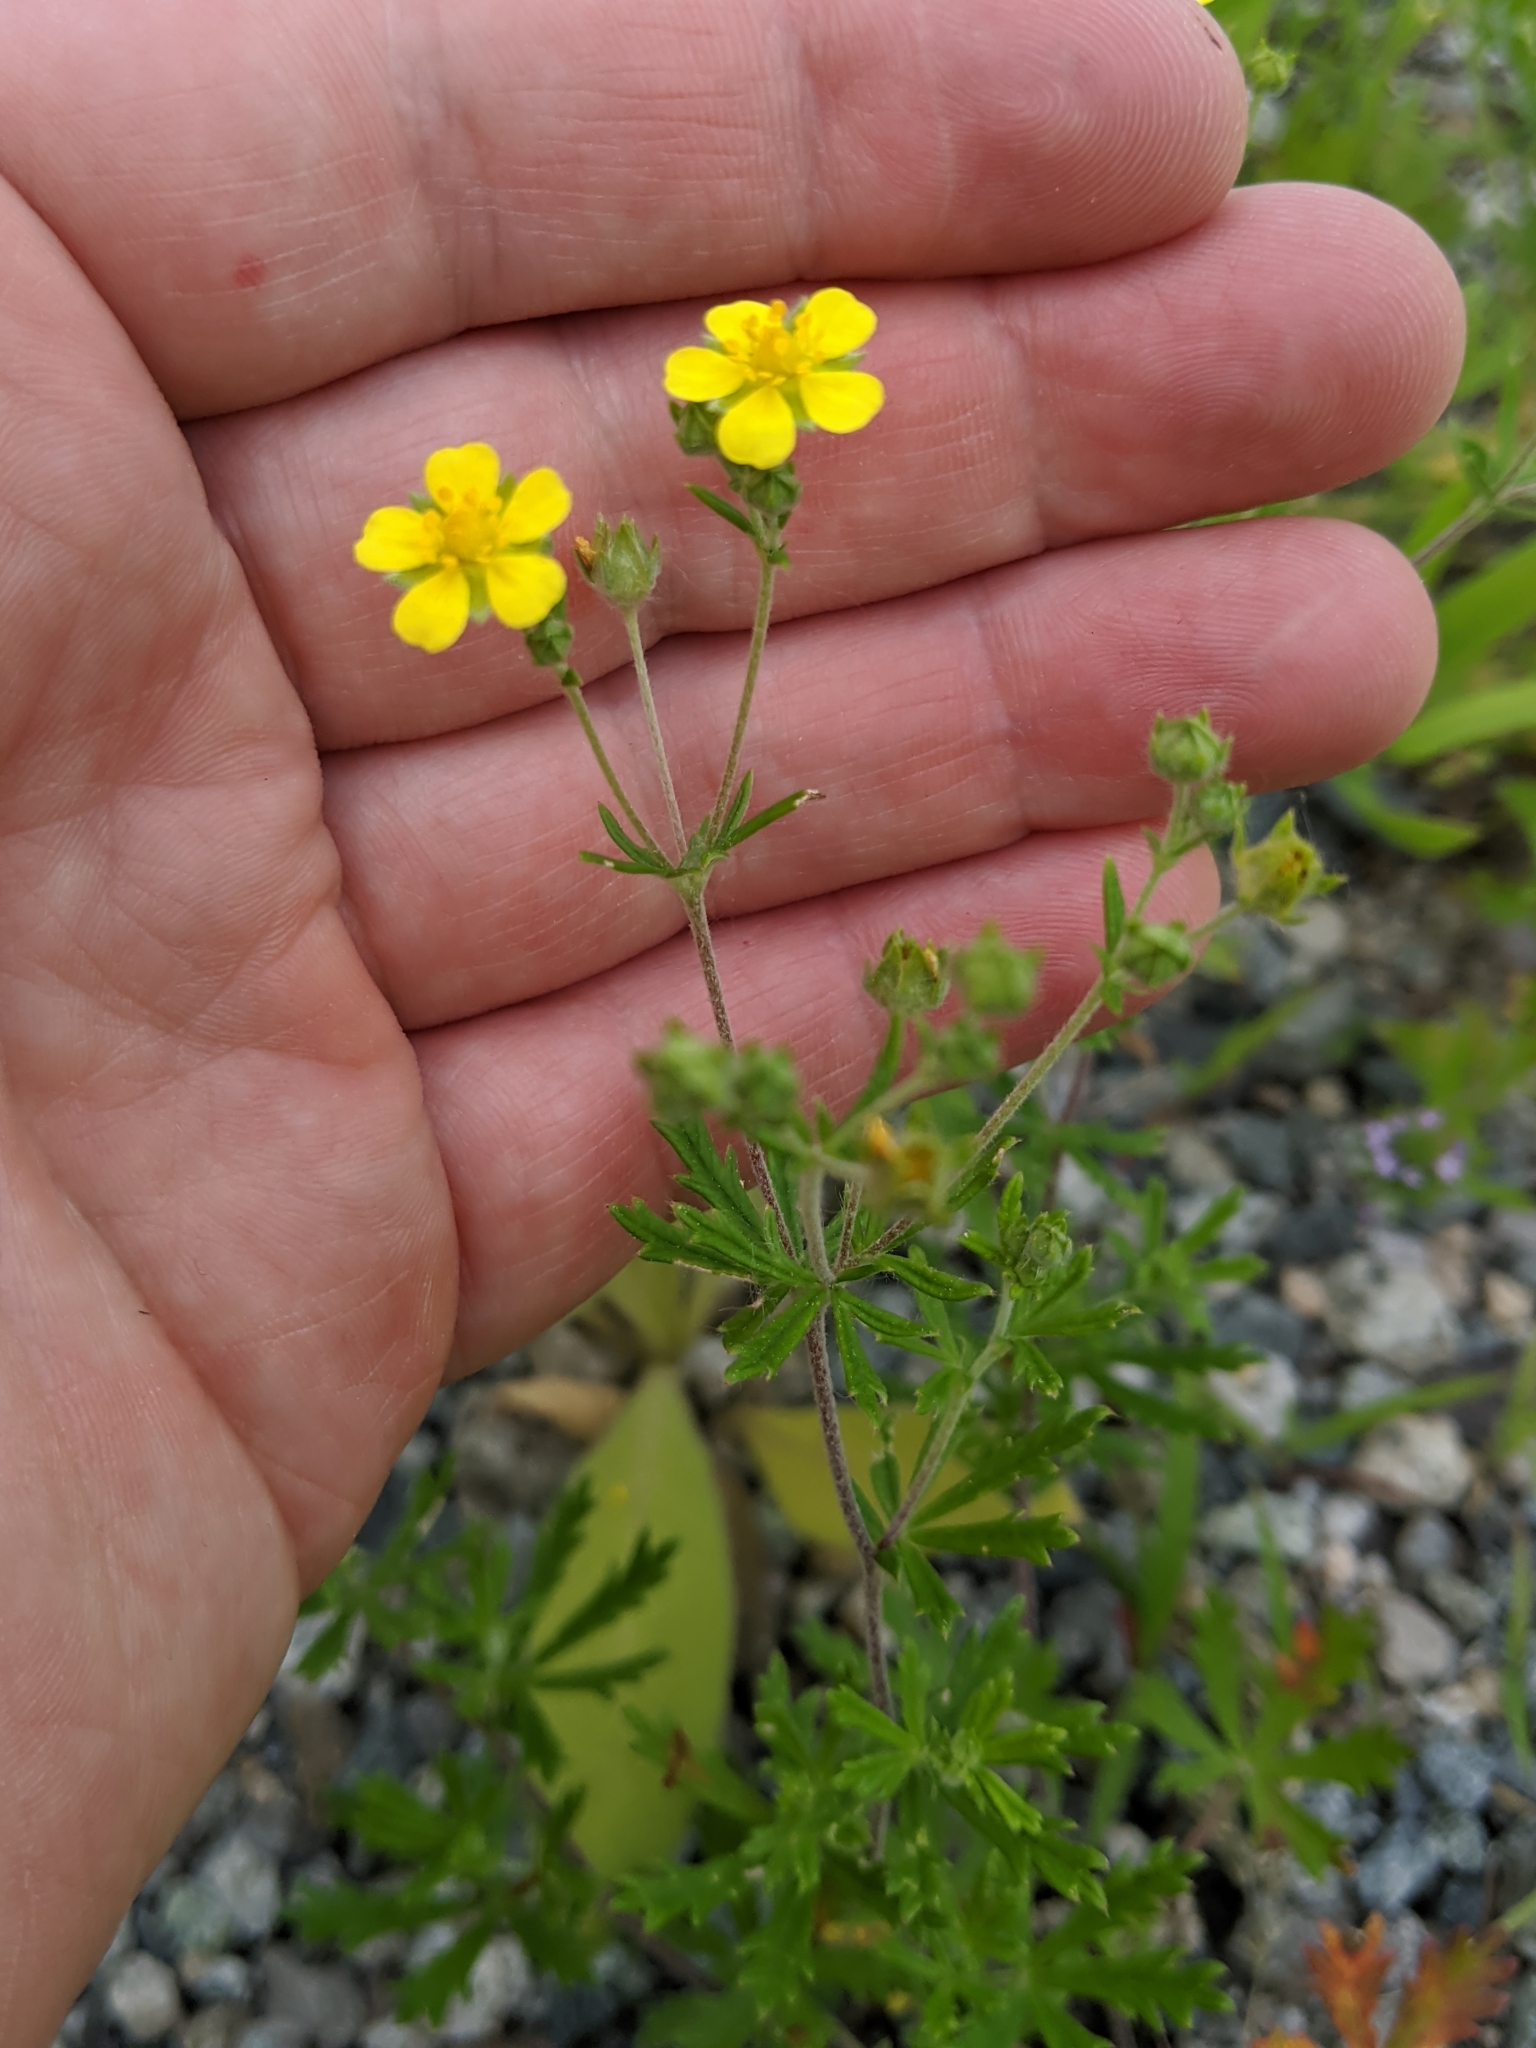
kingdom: Plantae
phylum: Tracheophyta
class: Magnoliopsida
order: Rosales
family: Rosaceae
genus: Potentilla
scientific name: Potentilla argentea
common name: Hoary cinquefoil
